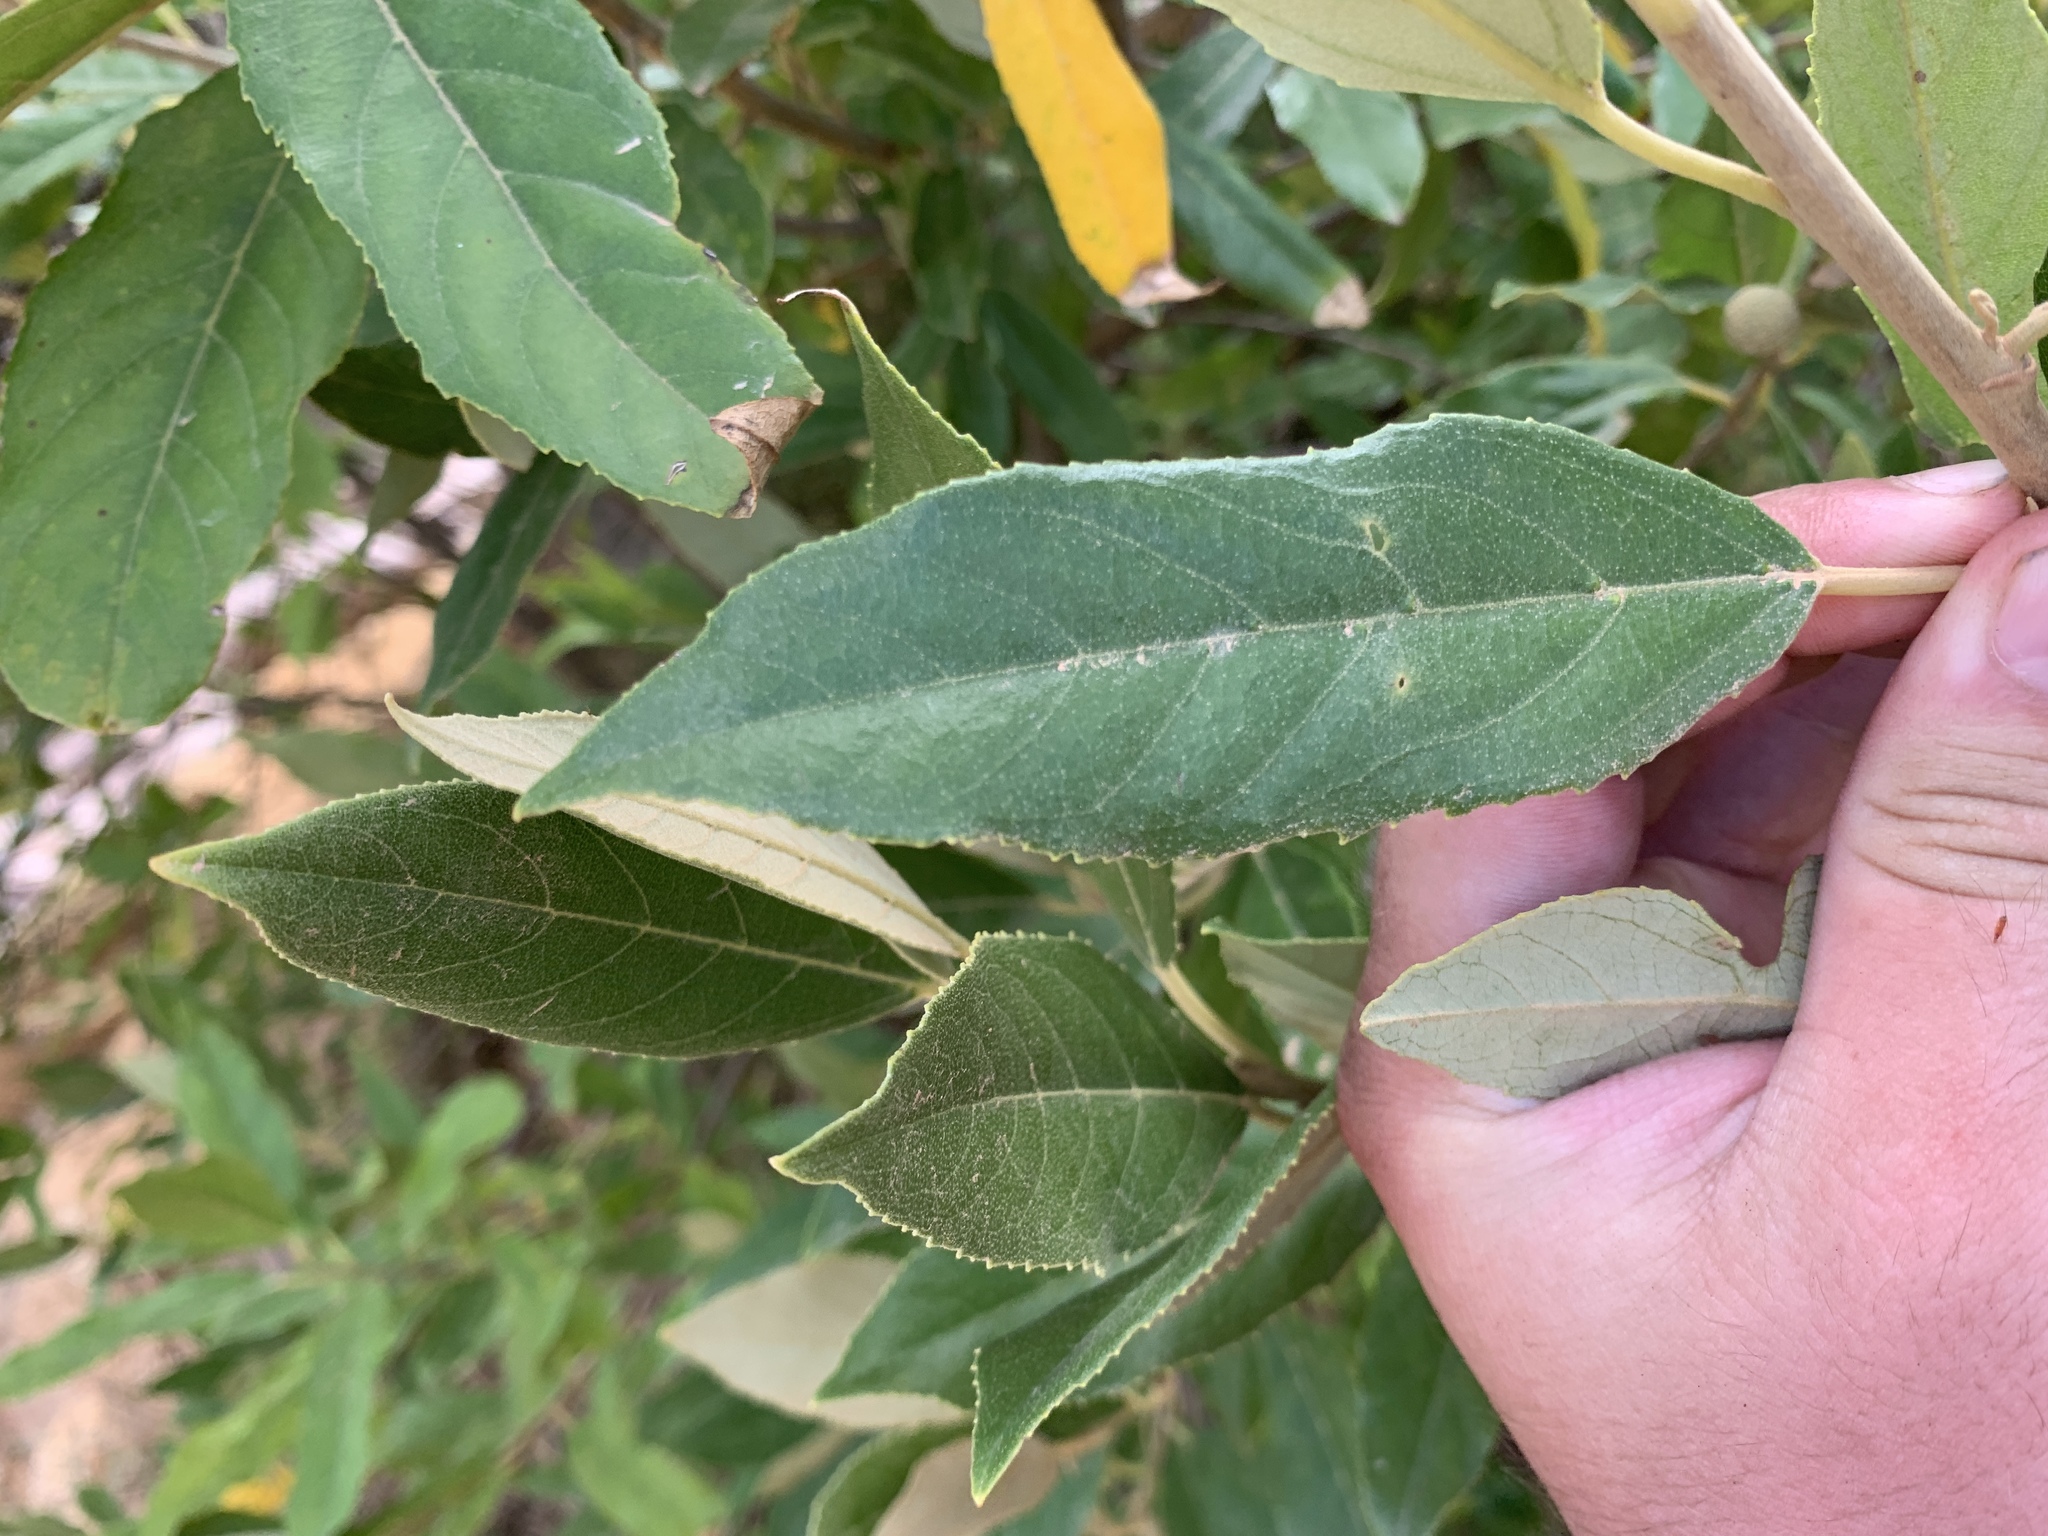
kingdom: Plantae
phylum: Tracheophyta
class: Magnoliopsida
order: Malpighiales
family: Achariaceae
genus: Kiggelaria
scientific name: Kiggelaria africana
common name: Wild peach
